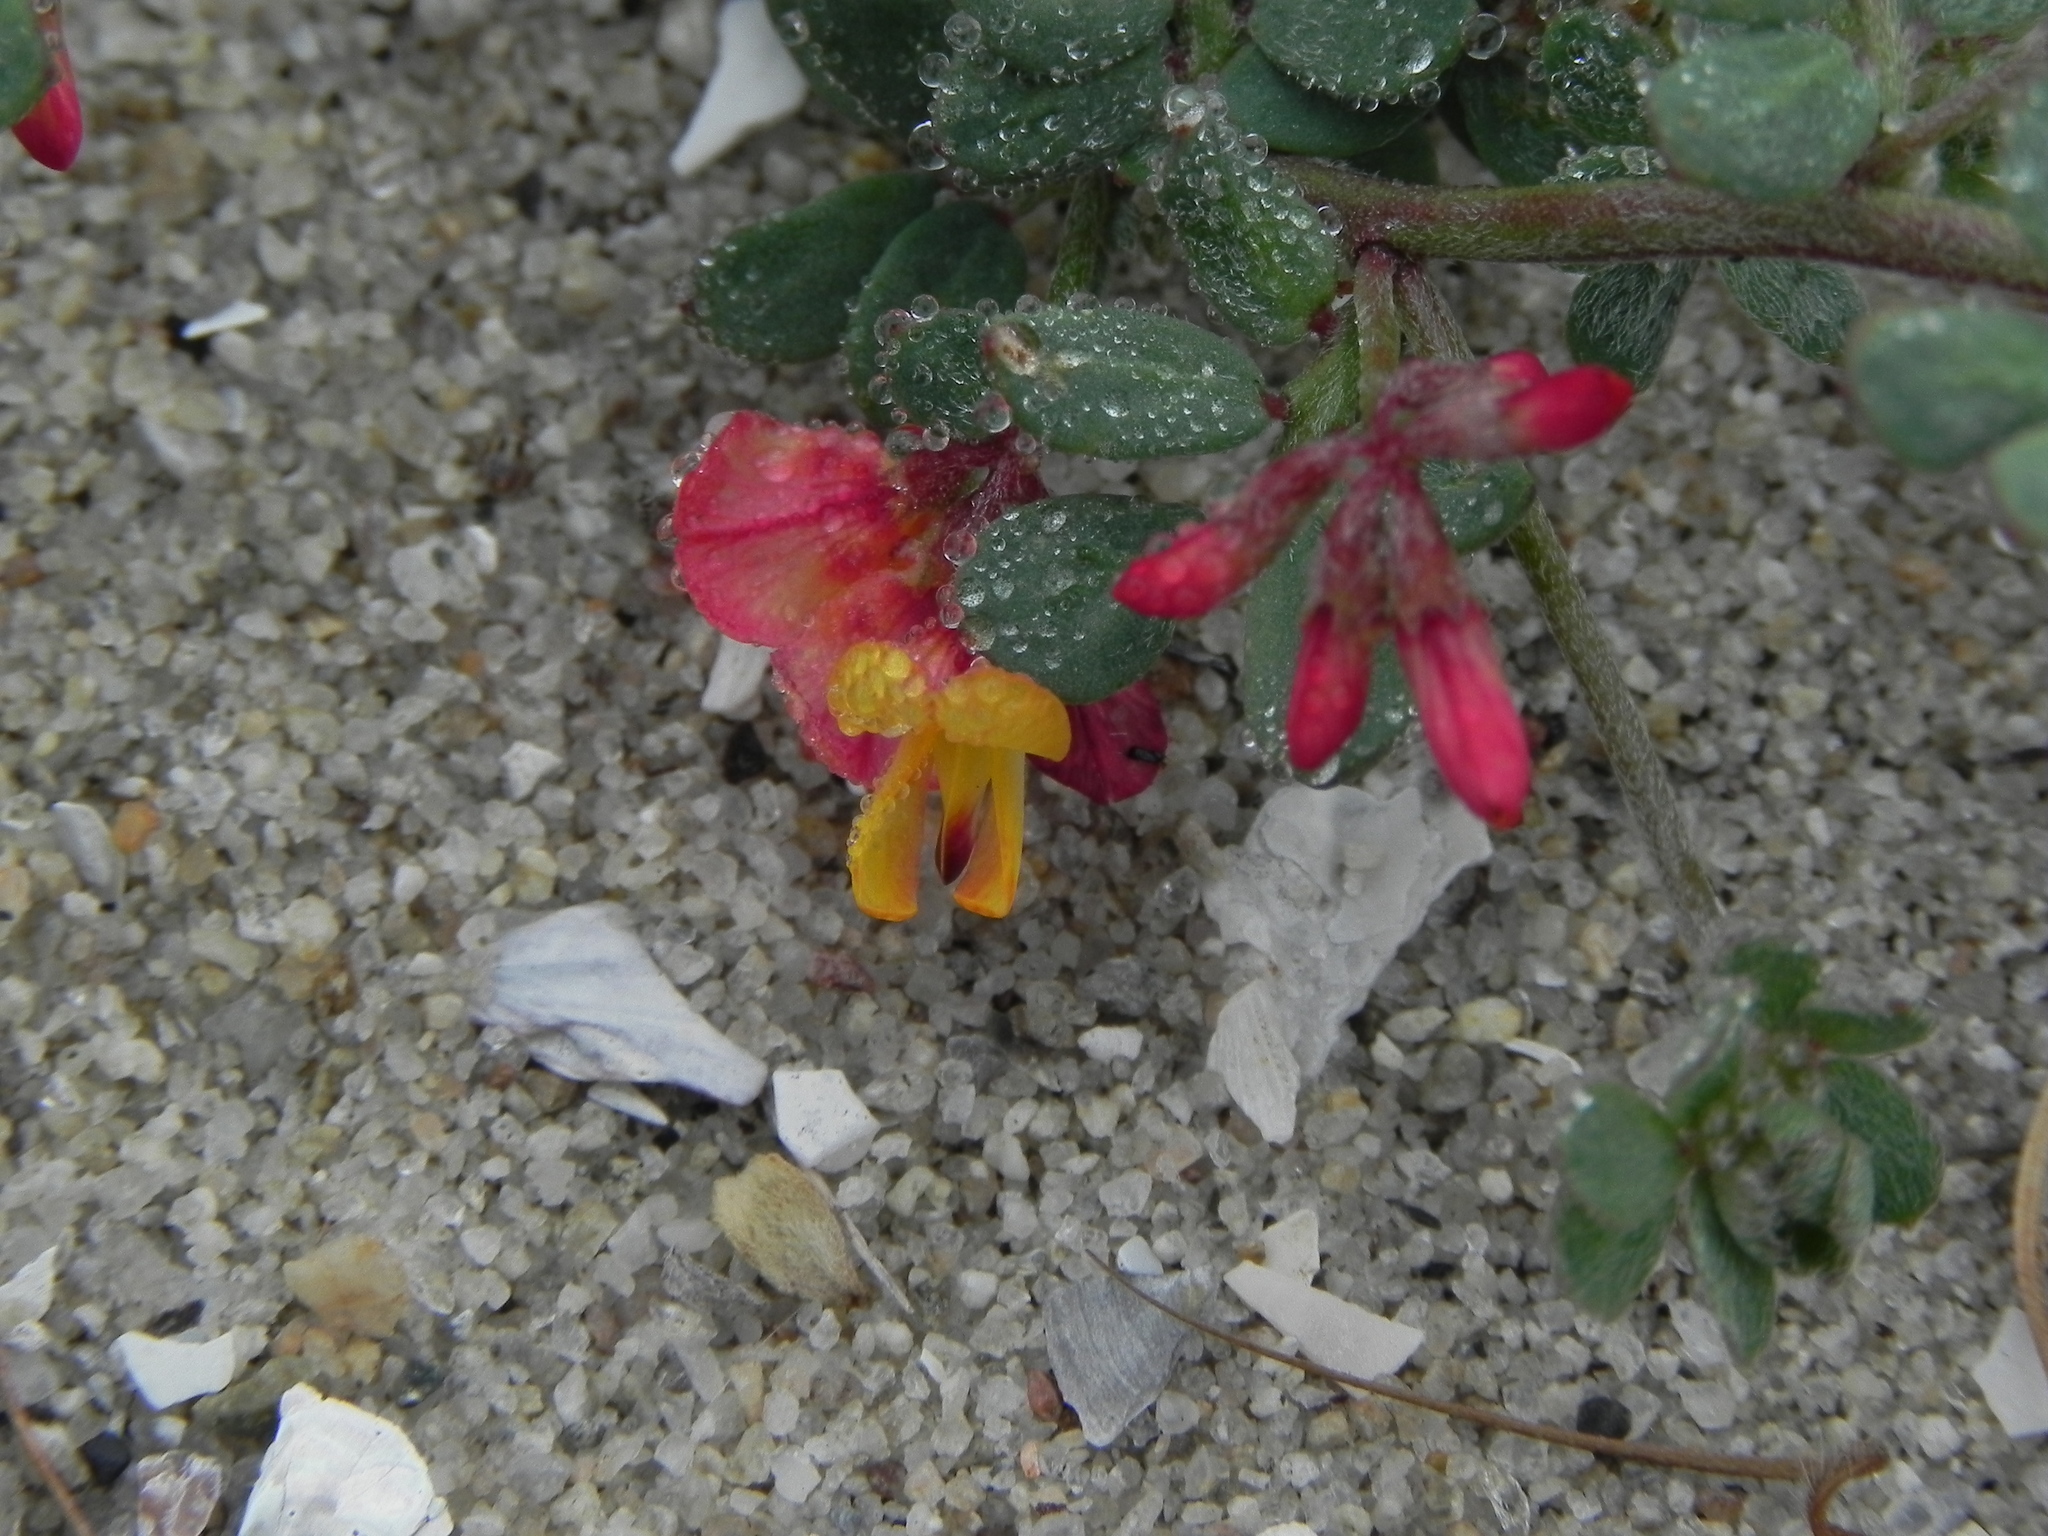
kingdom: Plantae
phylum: Tracheophyta
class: Magnoliopsida
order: Fabales
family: Fabaceae
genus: Acmispon
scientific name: Acmispon prostratus
